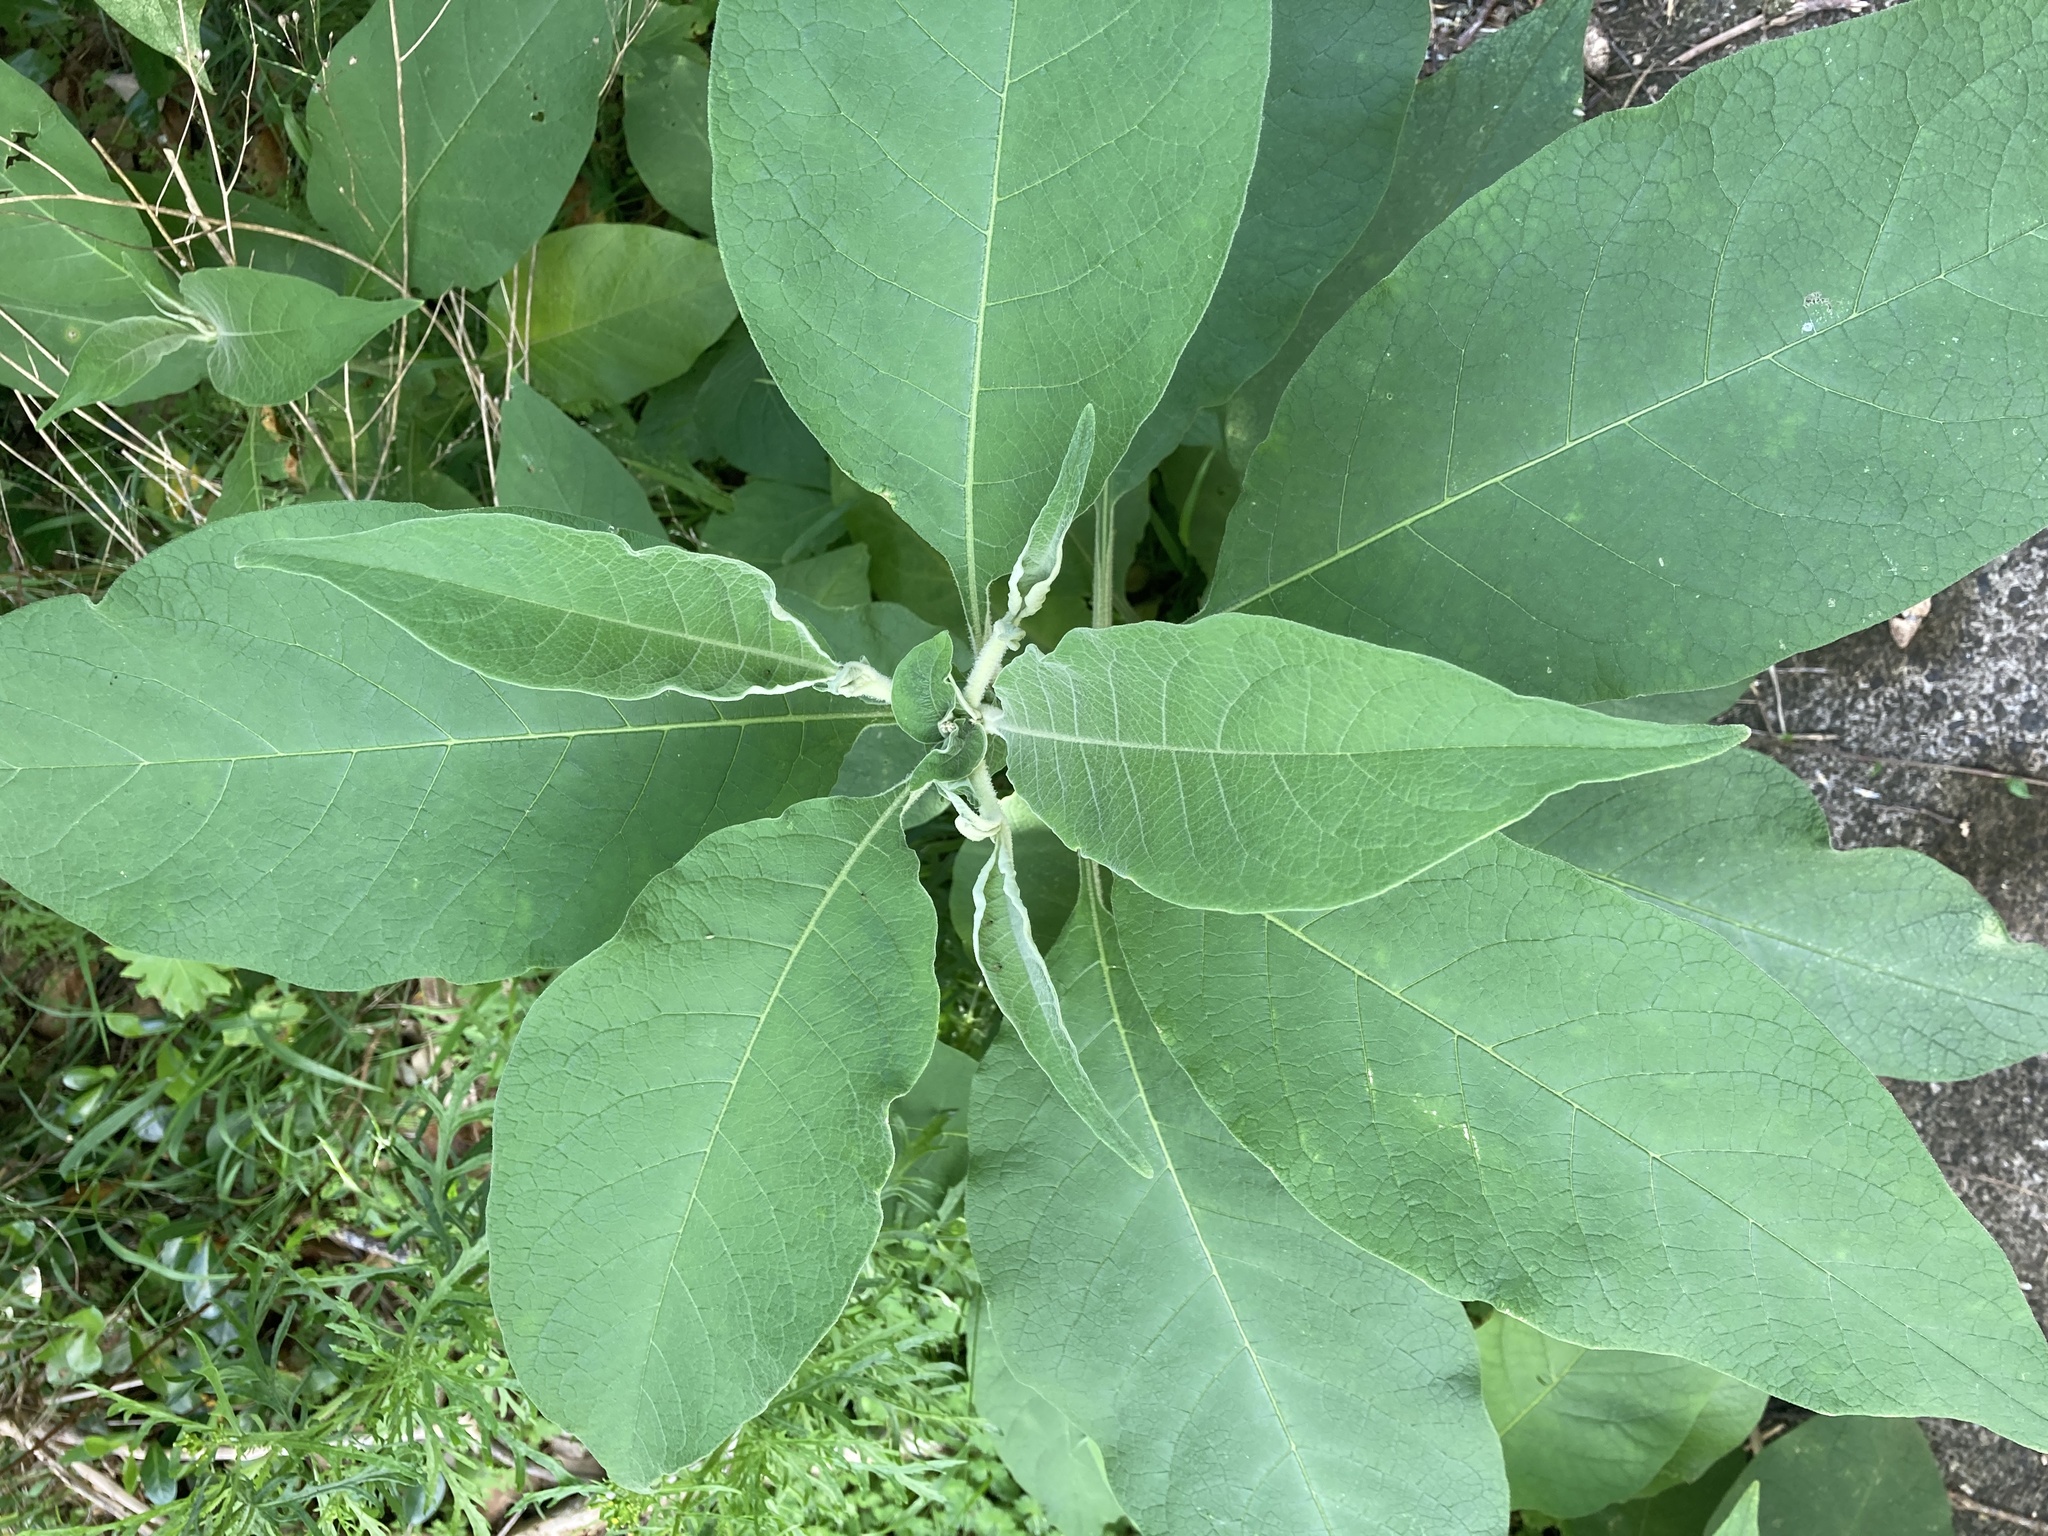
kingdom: Plantae
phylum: Tracheophyta
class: Magnoliopsida
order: Solanales
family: Solanaceae
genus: Solanum
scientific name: Solanum mauritianum
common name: Earleaf nightshade
